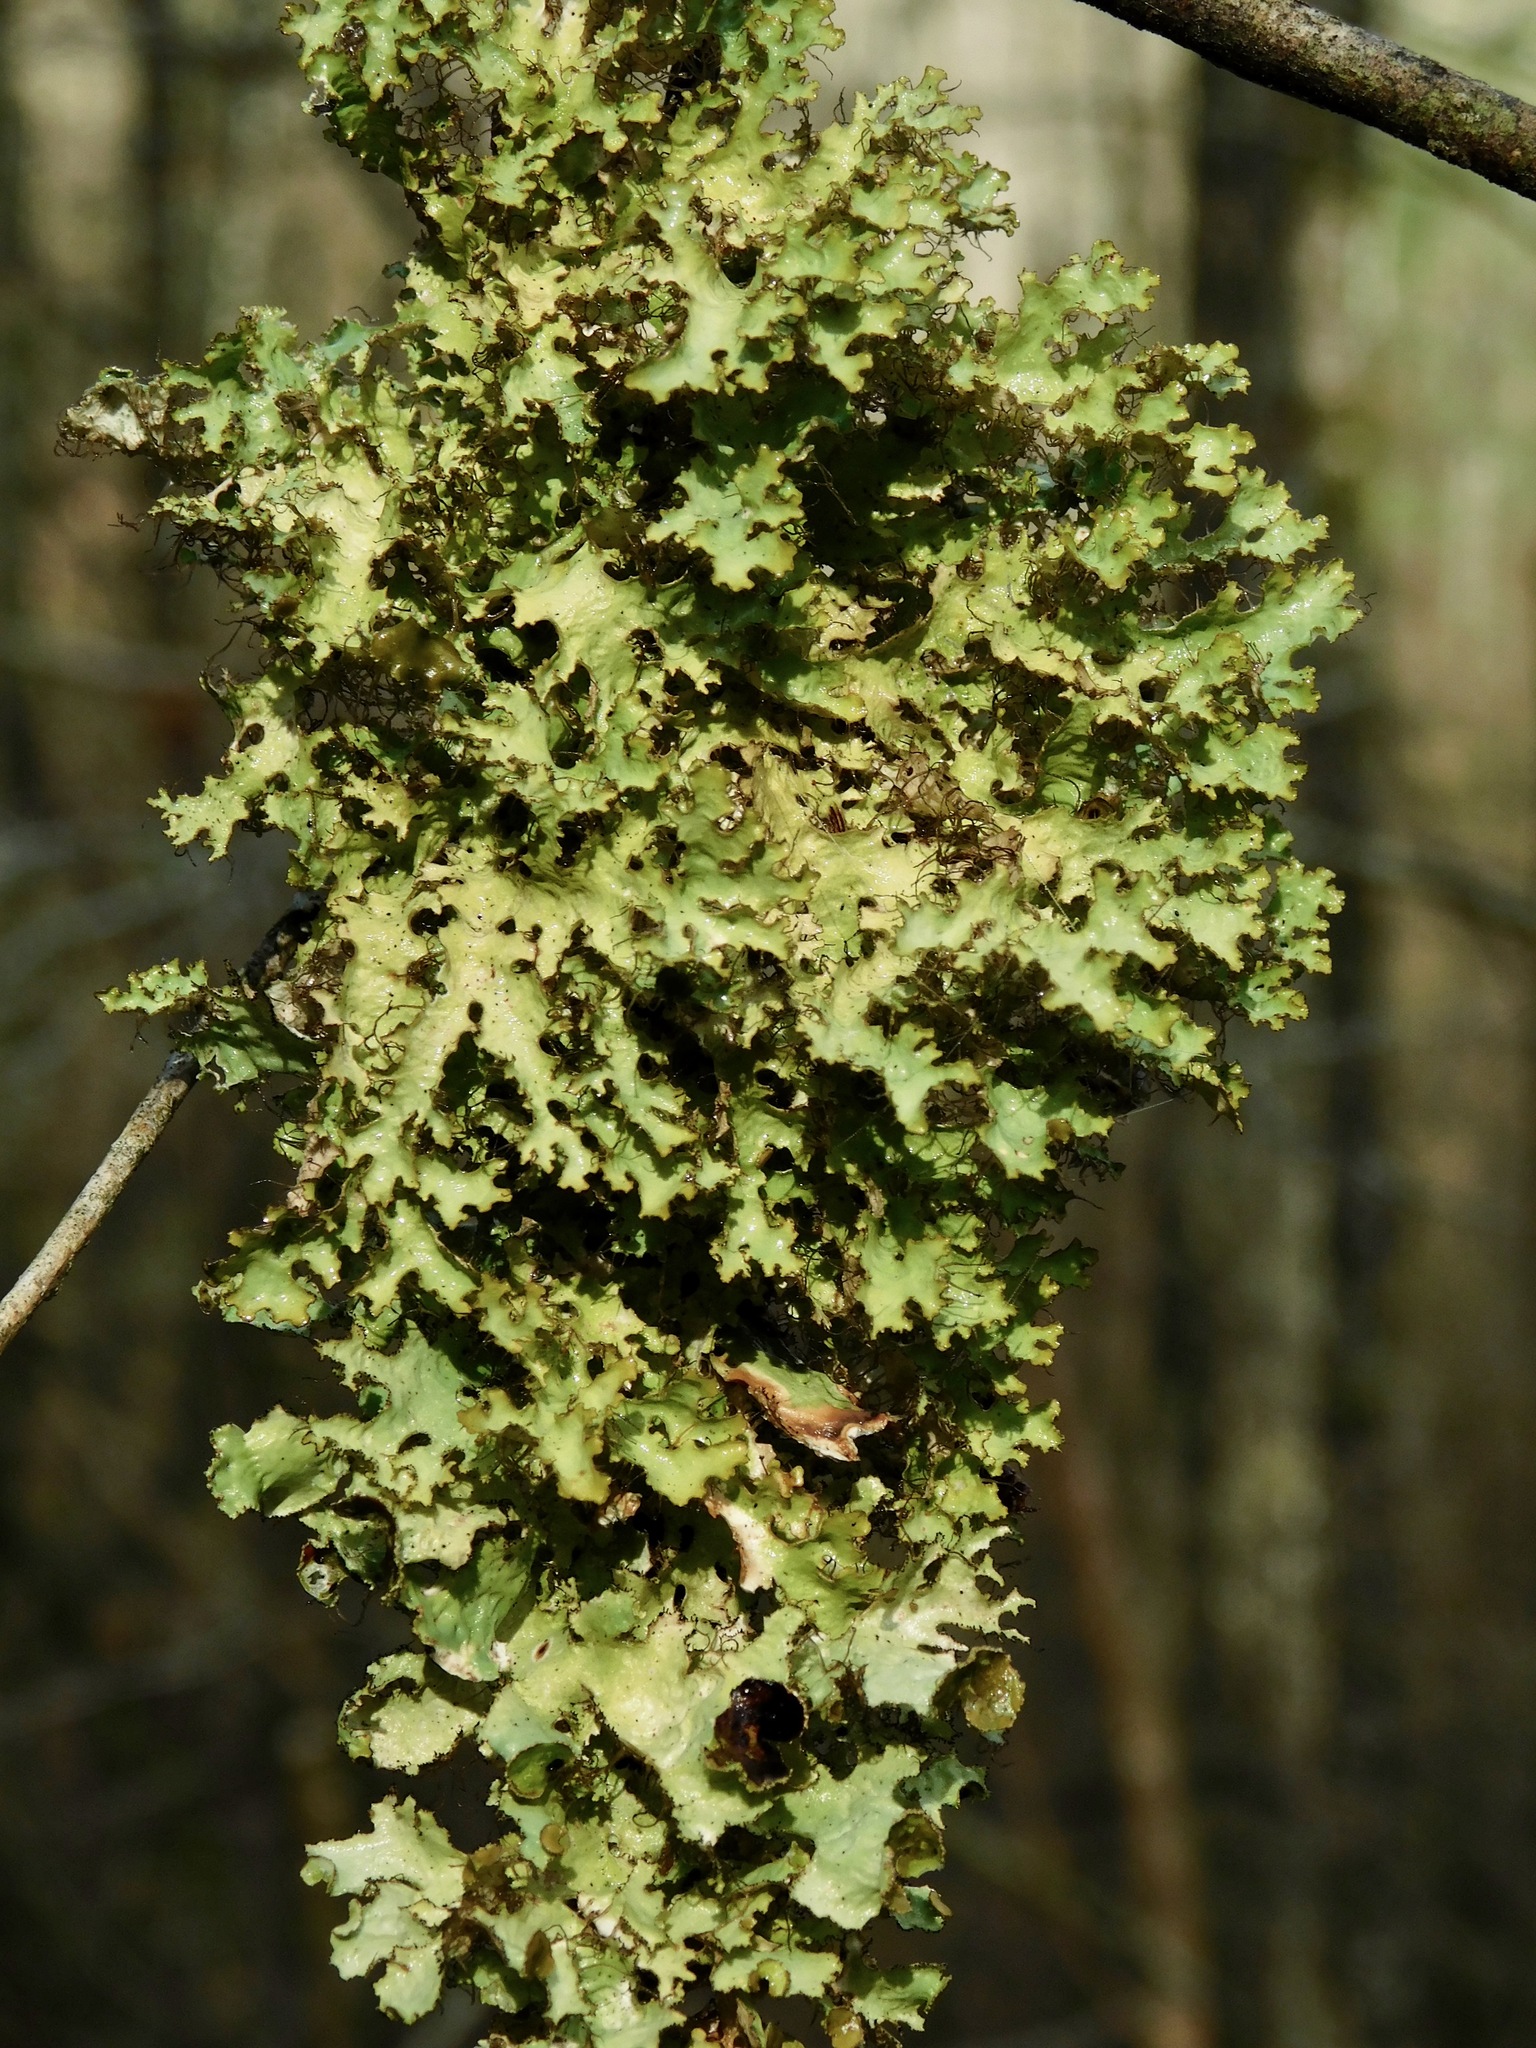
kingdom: Fungi
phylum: Ascomycota
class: Lecanoromycetes
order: Lecanorales
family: Parmeliaceae
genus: Tuckermannopsis
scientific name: Tuckermannopsis ciliaris
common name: Ciliate wrinkle-lichen
